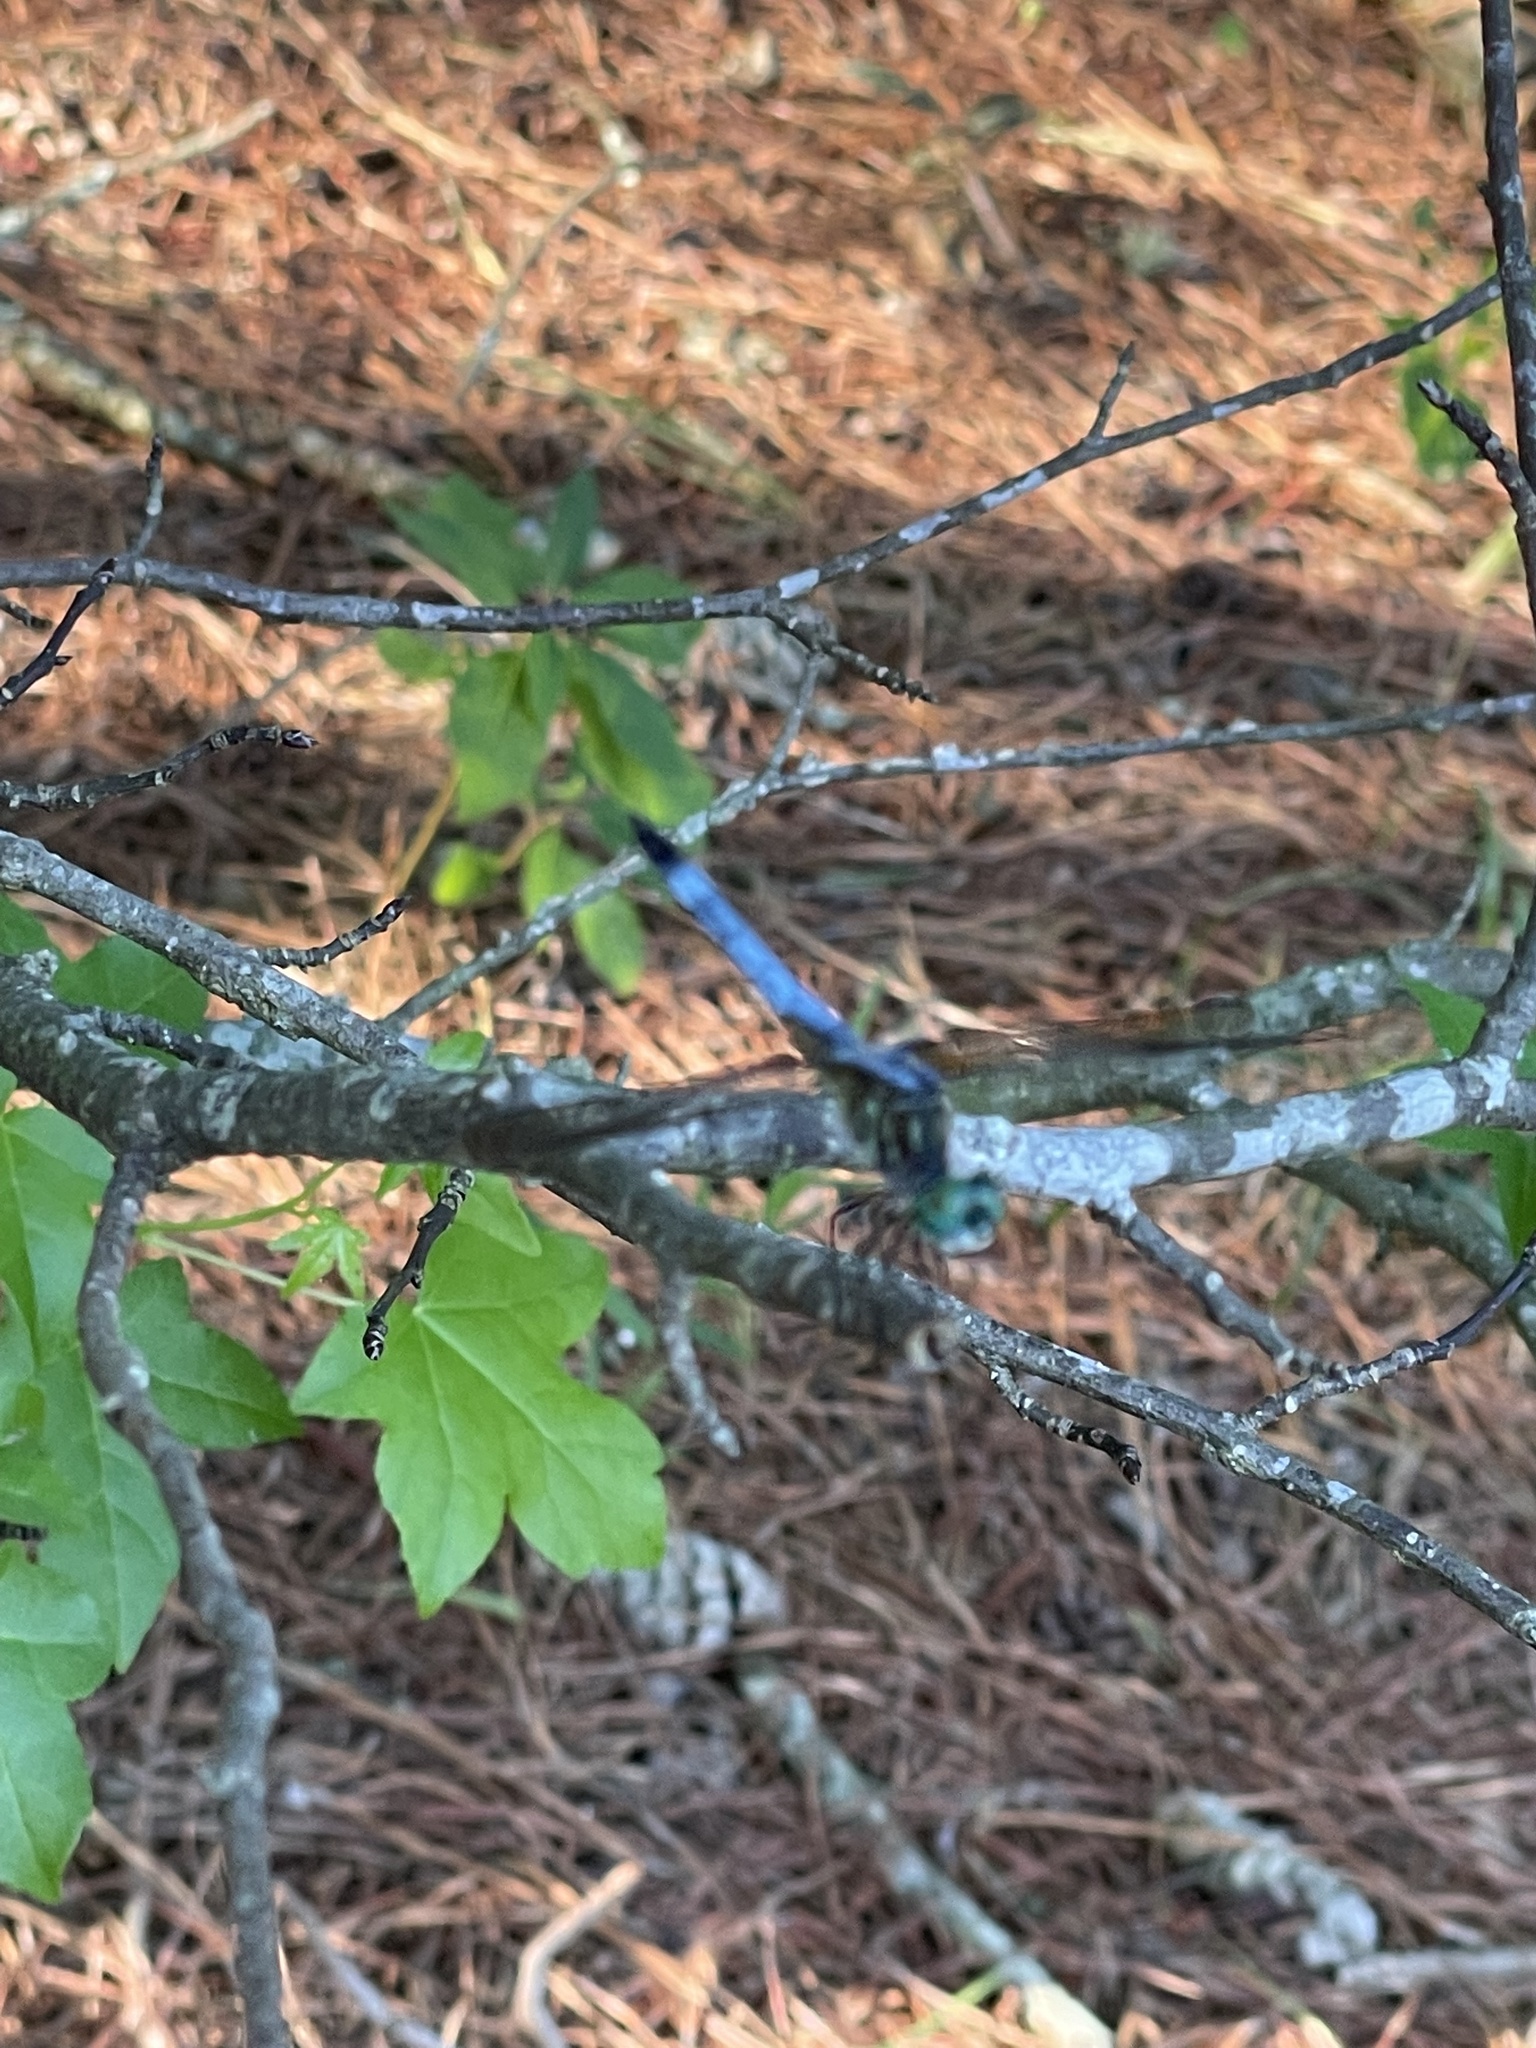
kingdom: Animalia
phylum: Arthropoda
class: Insecta
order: Odonata
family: Libellulidae
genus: Pachydiplax
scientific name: Pachydiplax longipennis
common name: Blue dasher
